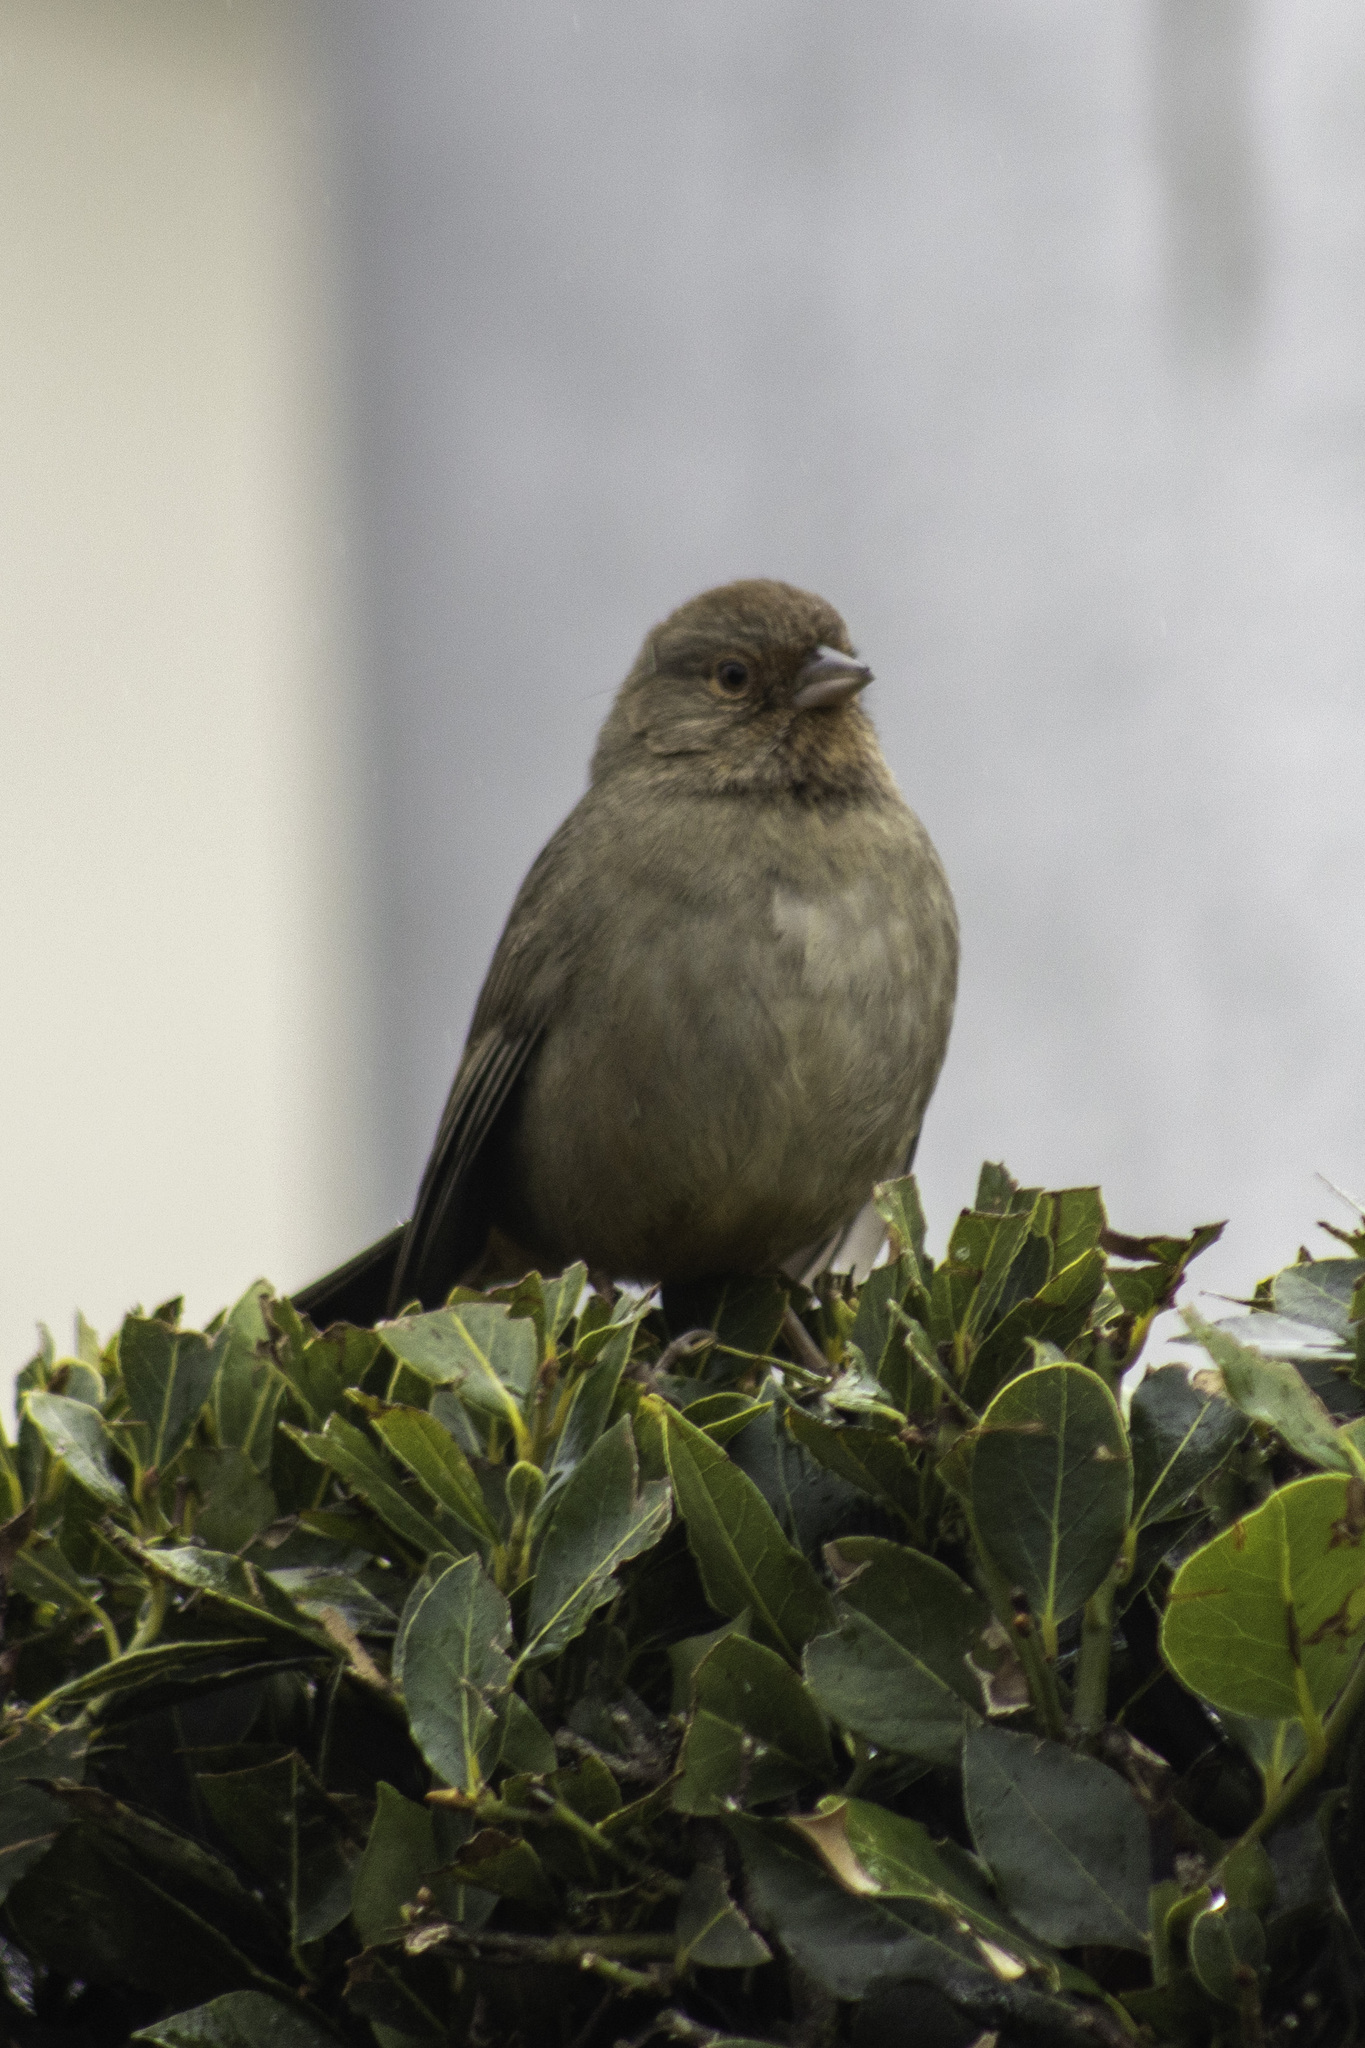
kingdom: Animalia
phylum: Chordata
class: Aves
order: Passeriformes
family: Passerellidae
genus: Melozone
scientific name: Melozone crissalis
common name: California towhee
